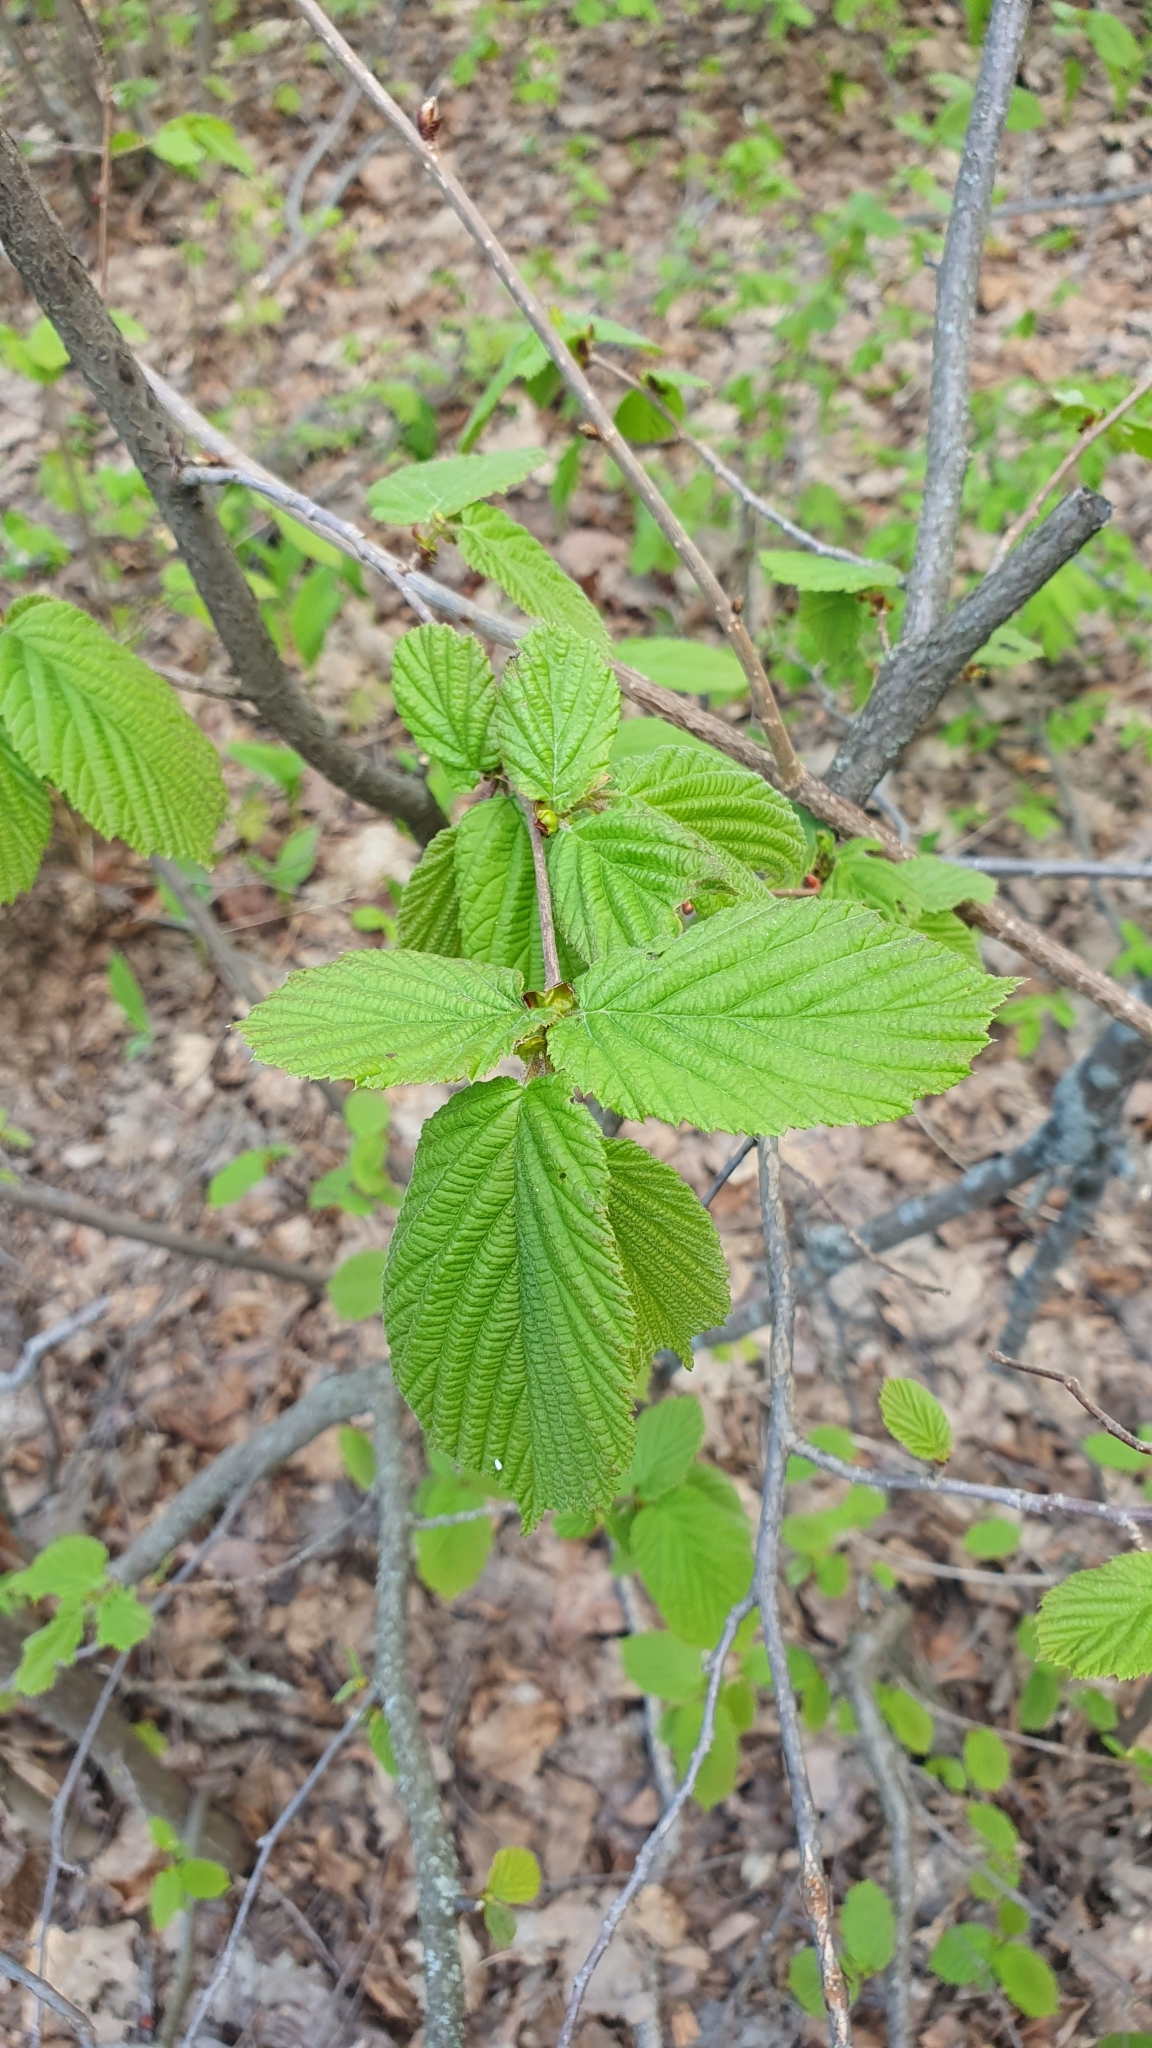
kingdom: Plantae
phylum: Tracheophyta
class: Magnoliopsida
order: Fagales
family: Betulaceae
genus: Corylus
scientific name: Corylus avellana
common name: European hazel
